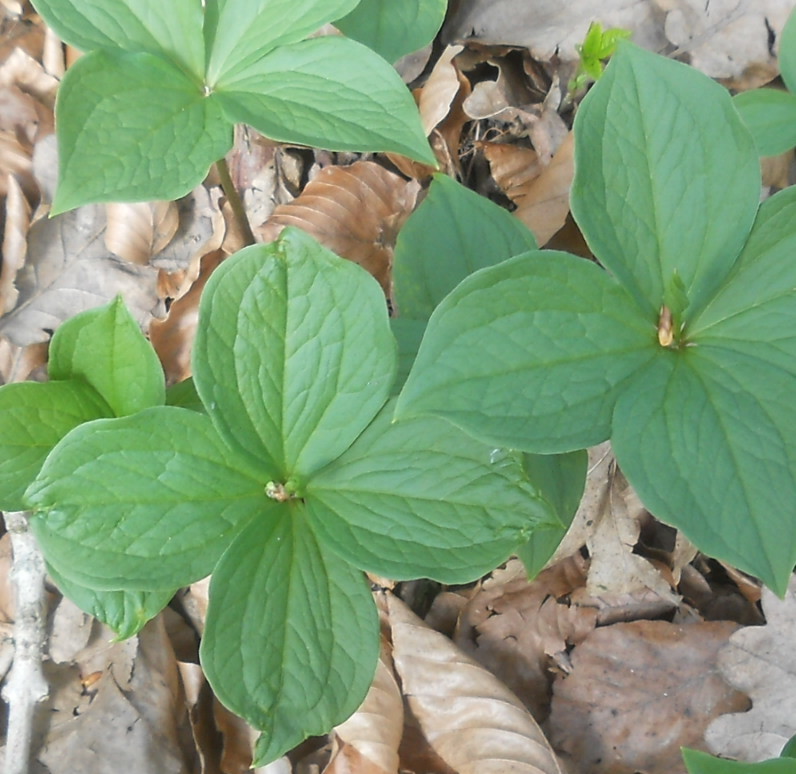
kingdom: Plantae
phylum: Tracheophyta
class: Liliopsida
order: Liliales
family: Melanthiaceae
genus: Paris
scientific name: Paris quadrifolia
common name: Herb-paris
